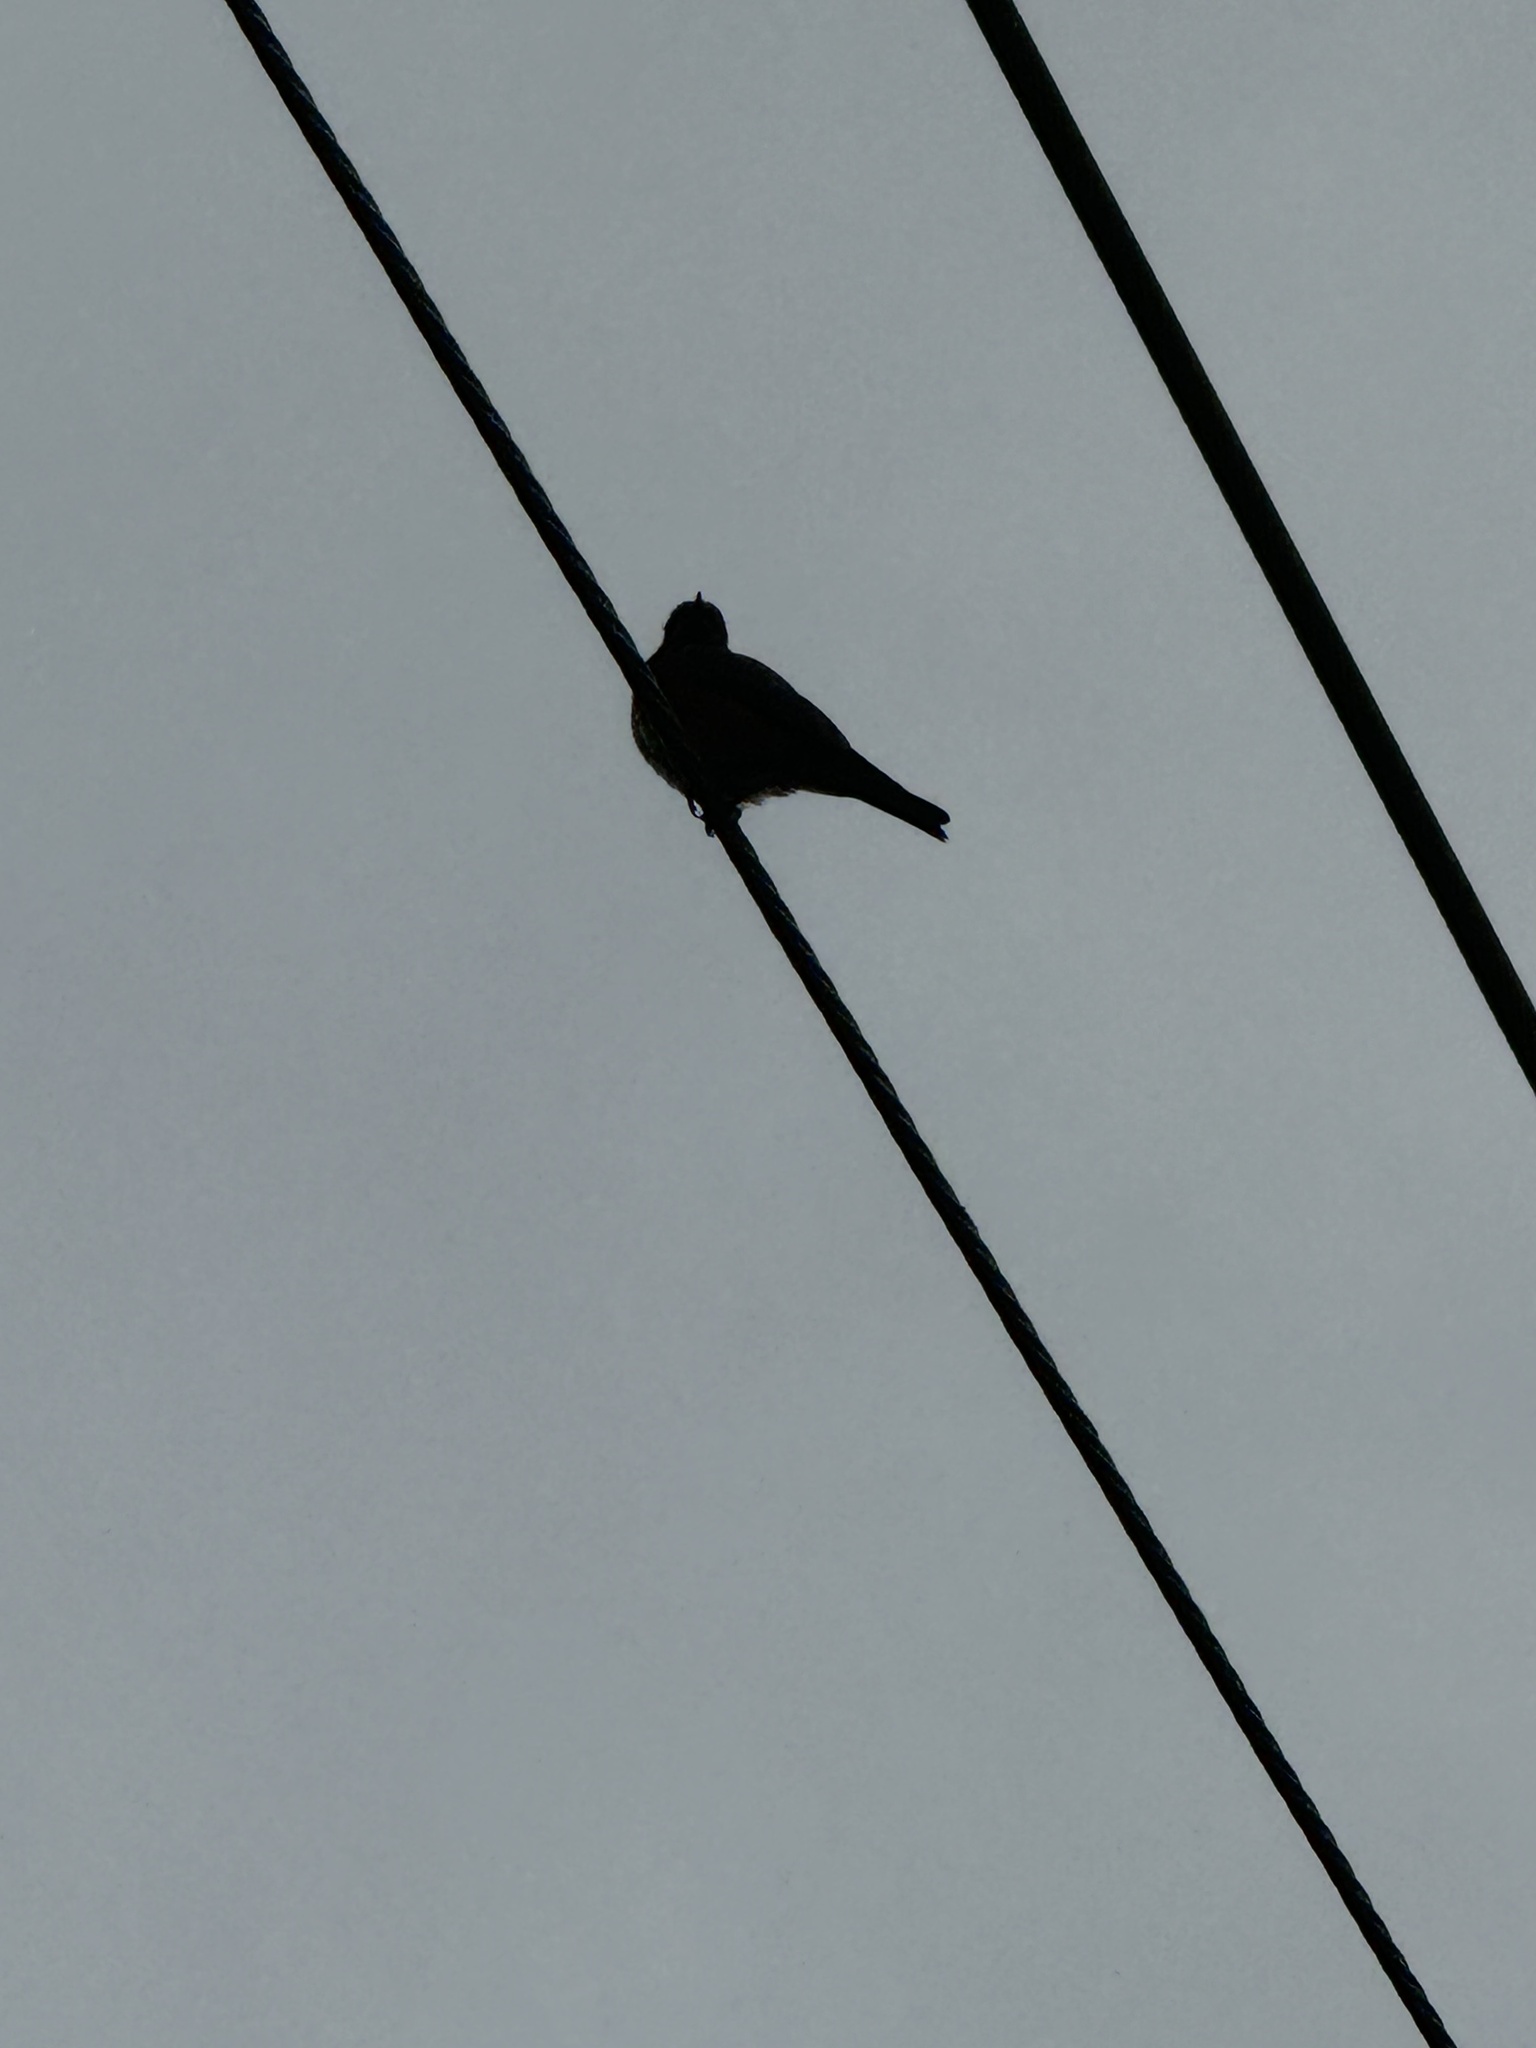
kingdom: Animalia
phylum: Chordata
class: Aves
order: Passeriformes
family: Turdidae
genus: Sialia
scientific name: Sialia mexicana
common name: Western bluebird
